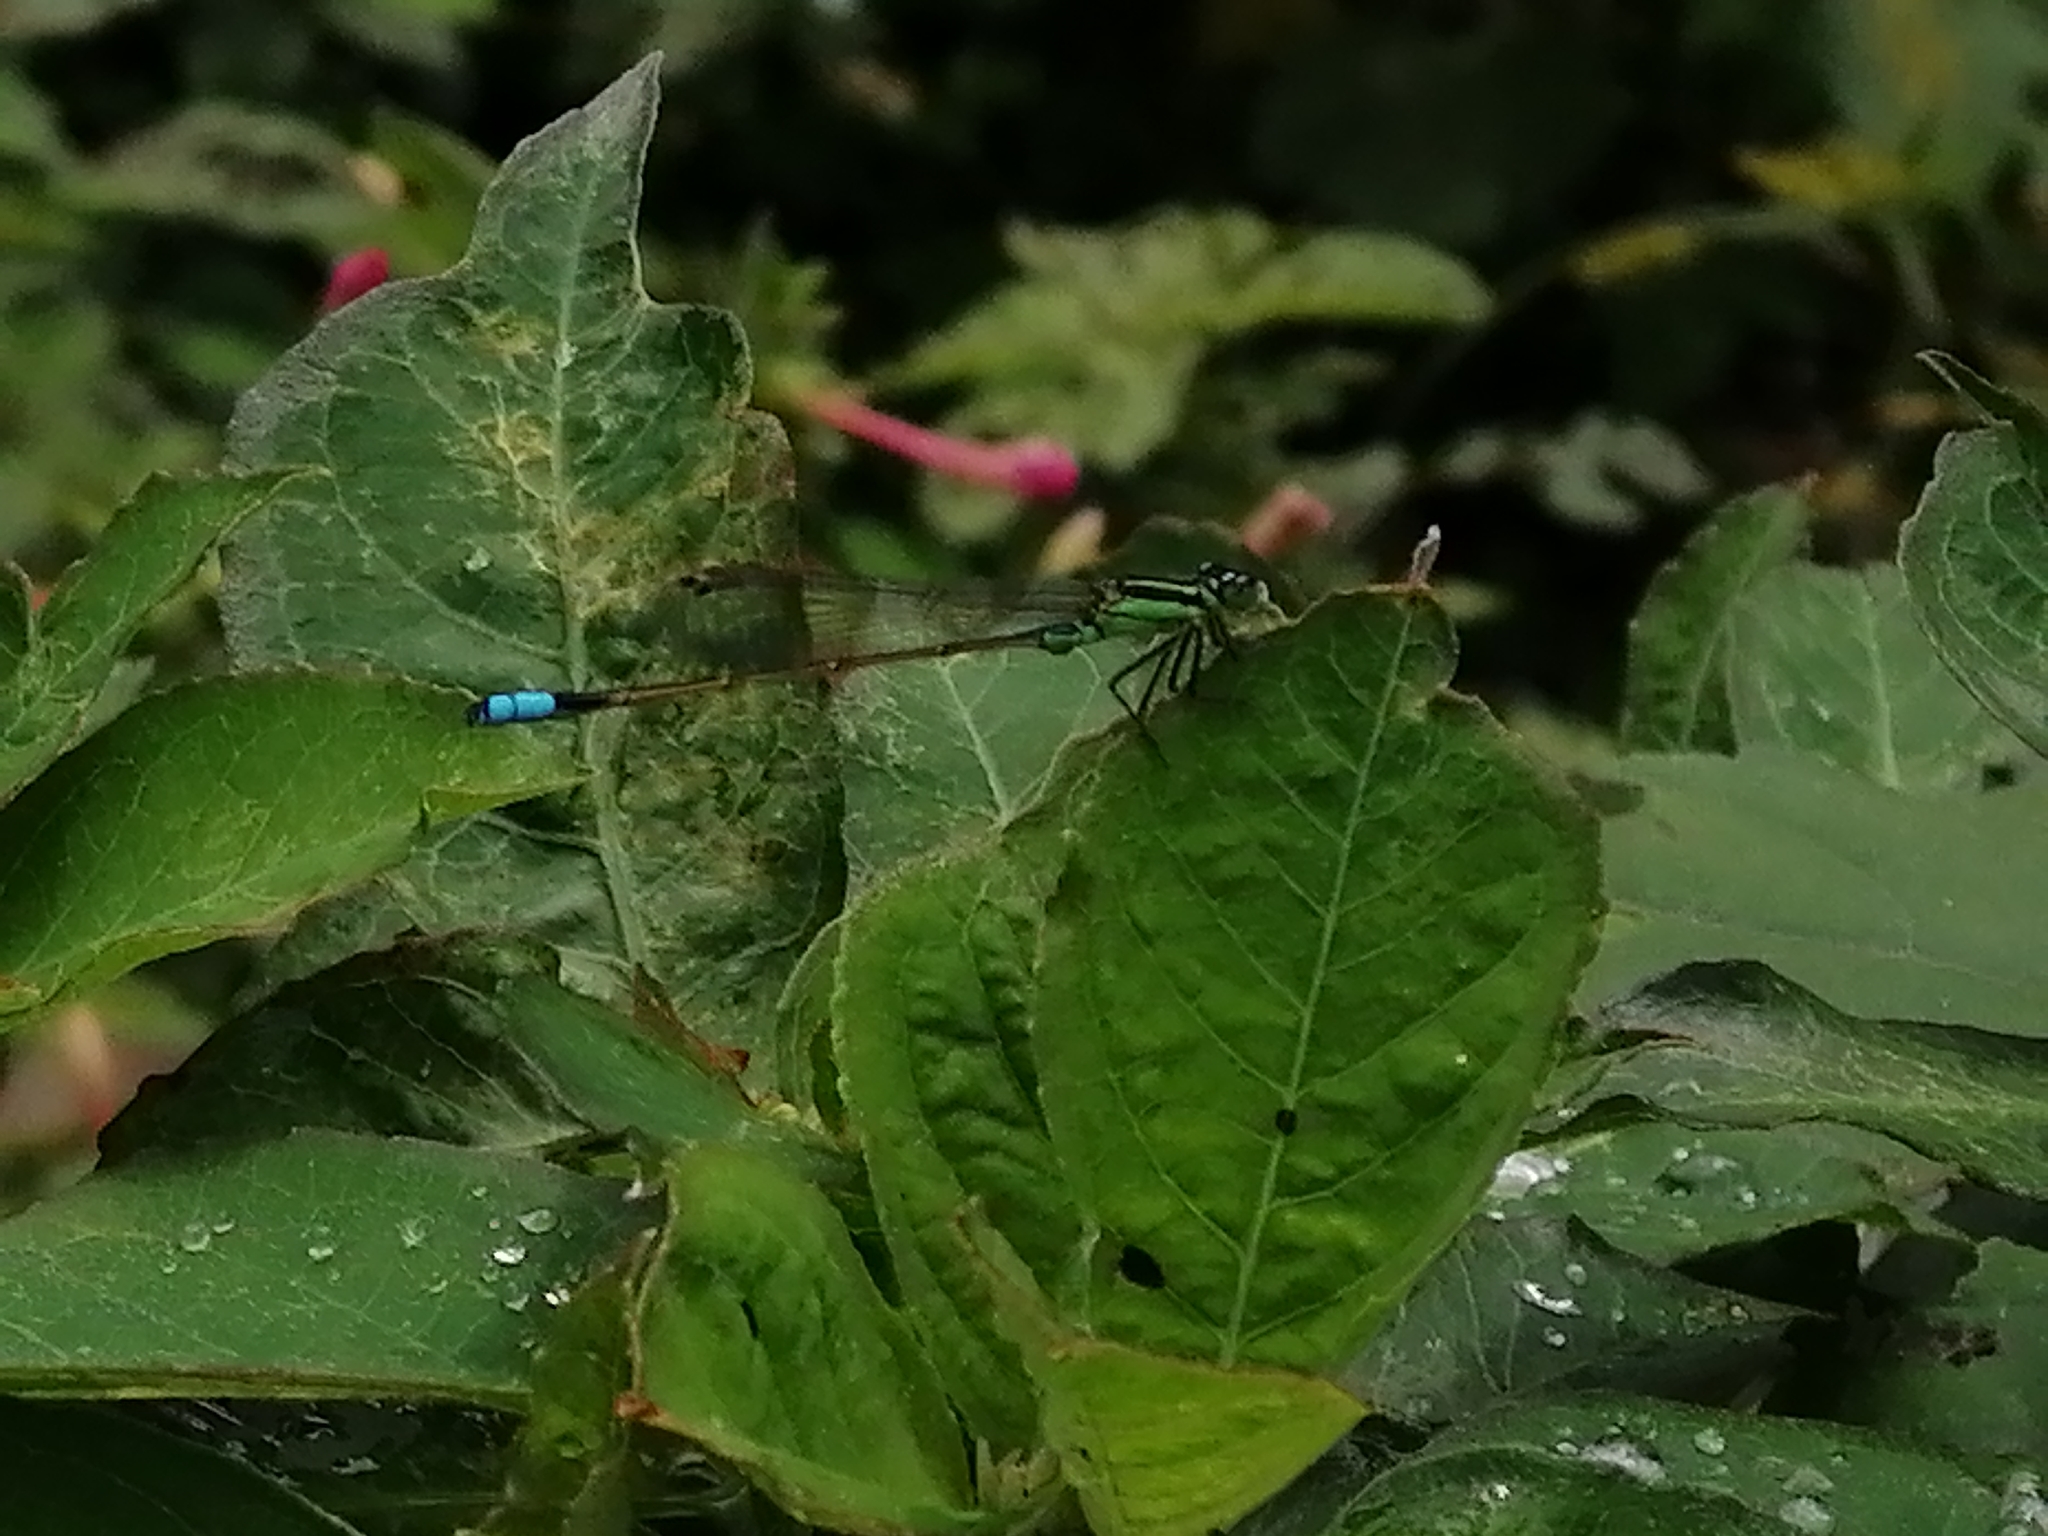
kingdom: Animalia
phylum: Arthropoda
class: Insecta
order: Odonata
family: Coenagrionidae
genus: Ischnura
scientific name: Ischnura ramburii
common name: Rambur's forktail
